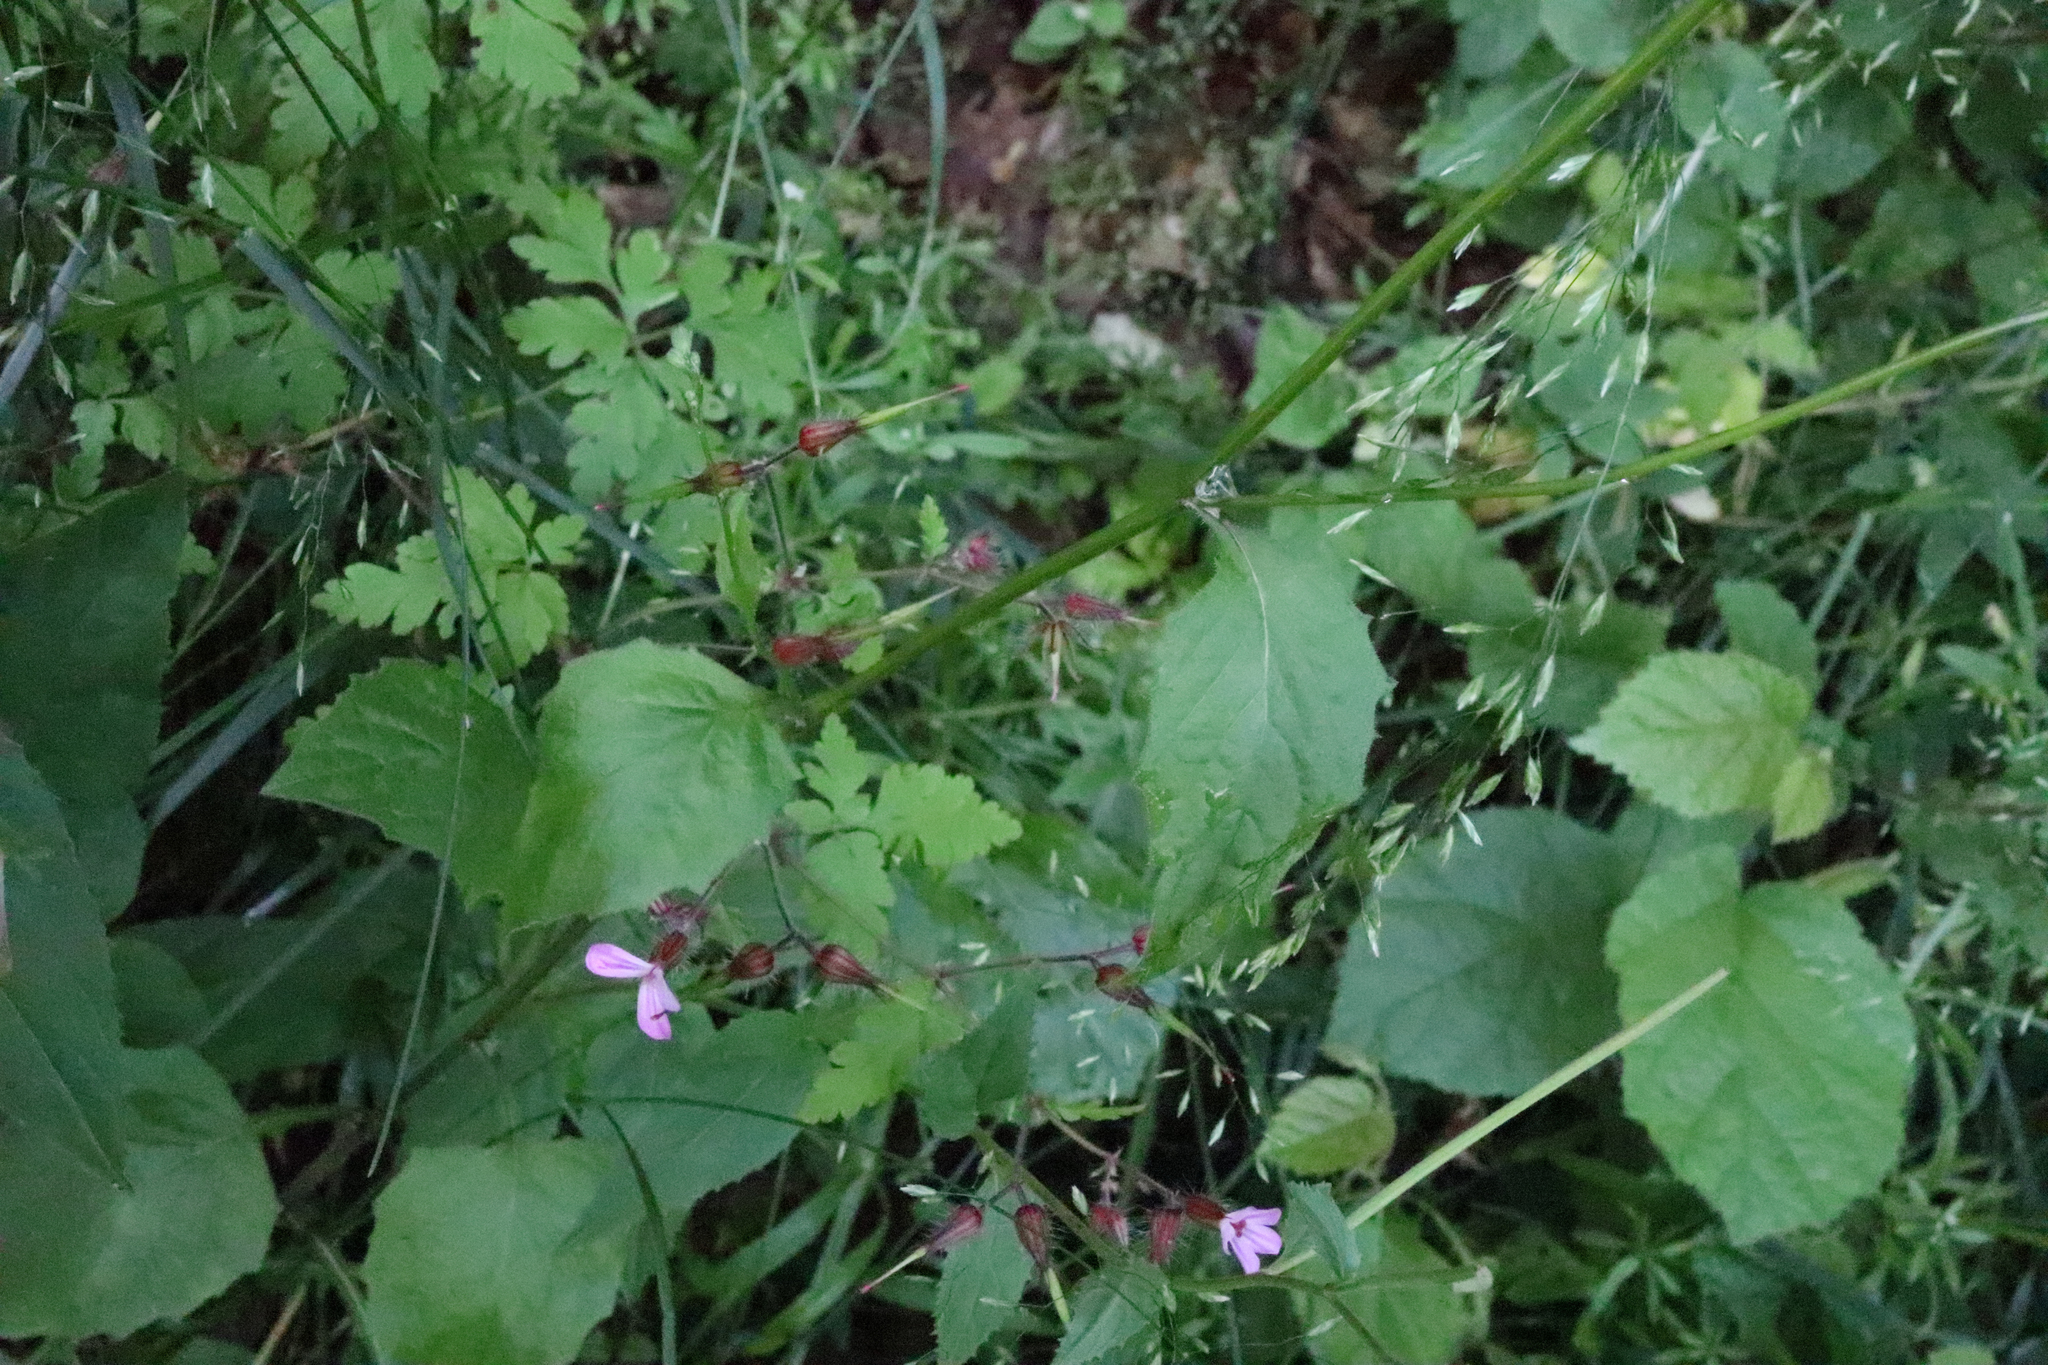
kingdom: Plantae
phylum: Tracheophyta
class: Magnoliopsida
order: Asterales
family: Asteraceae
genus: Lapsana
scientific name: Lapsana communis
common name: Nipplewort
